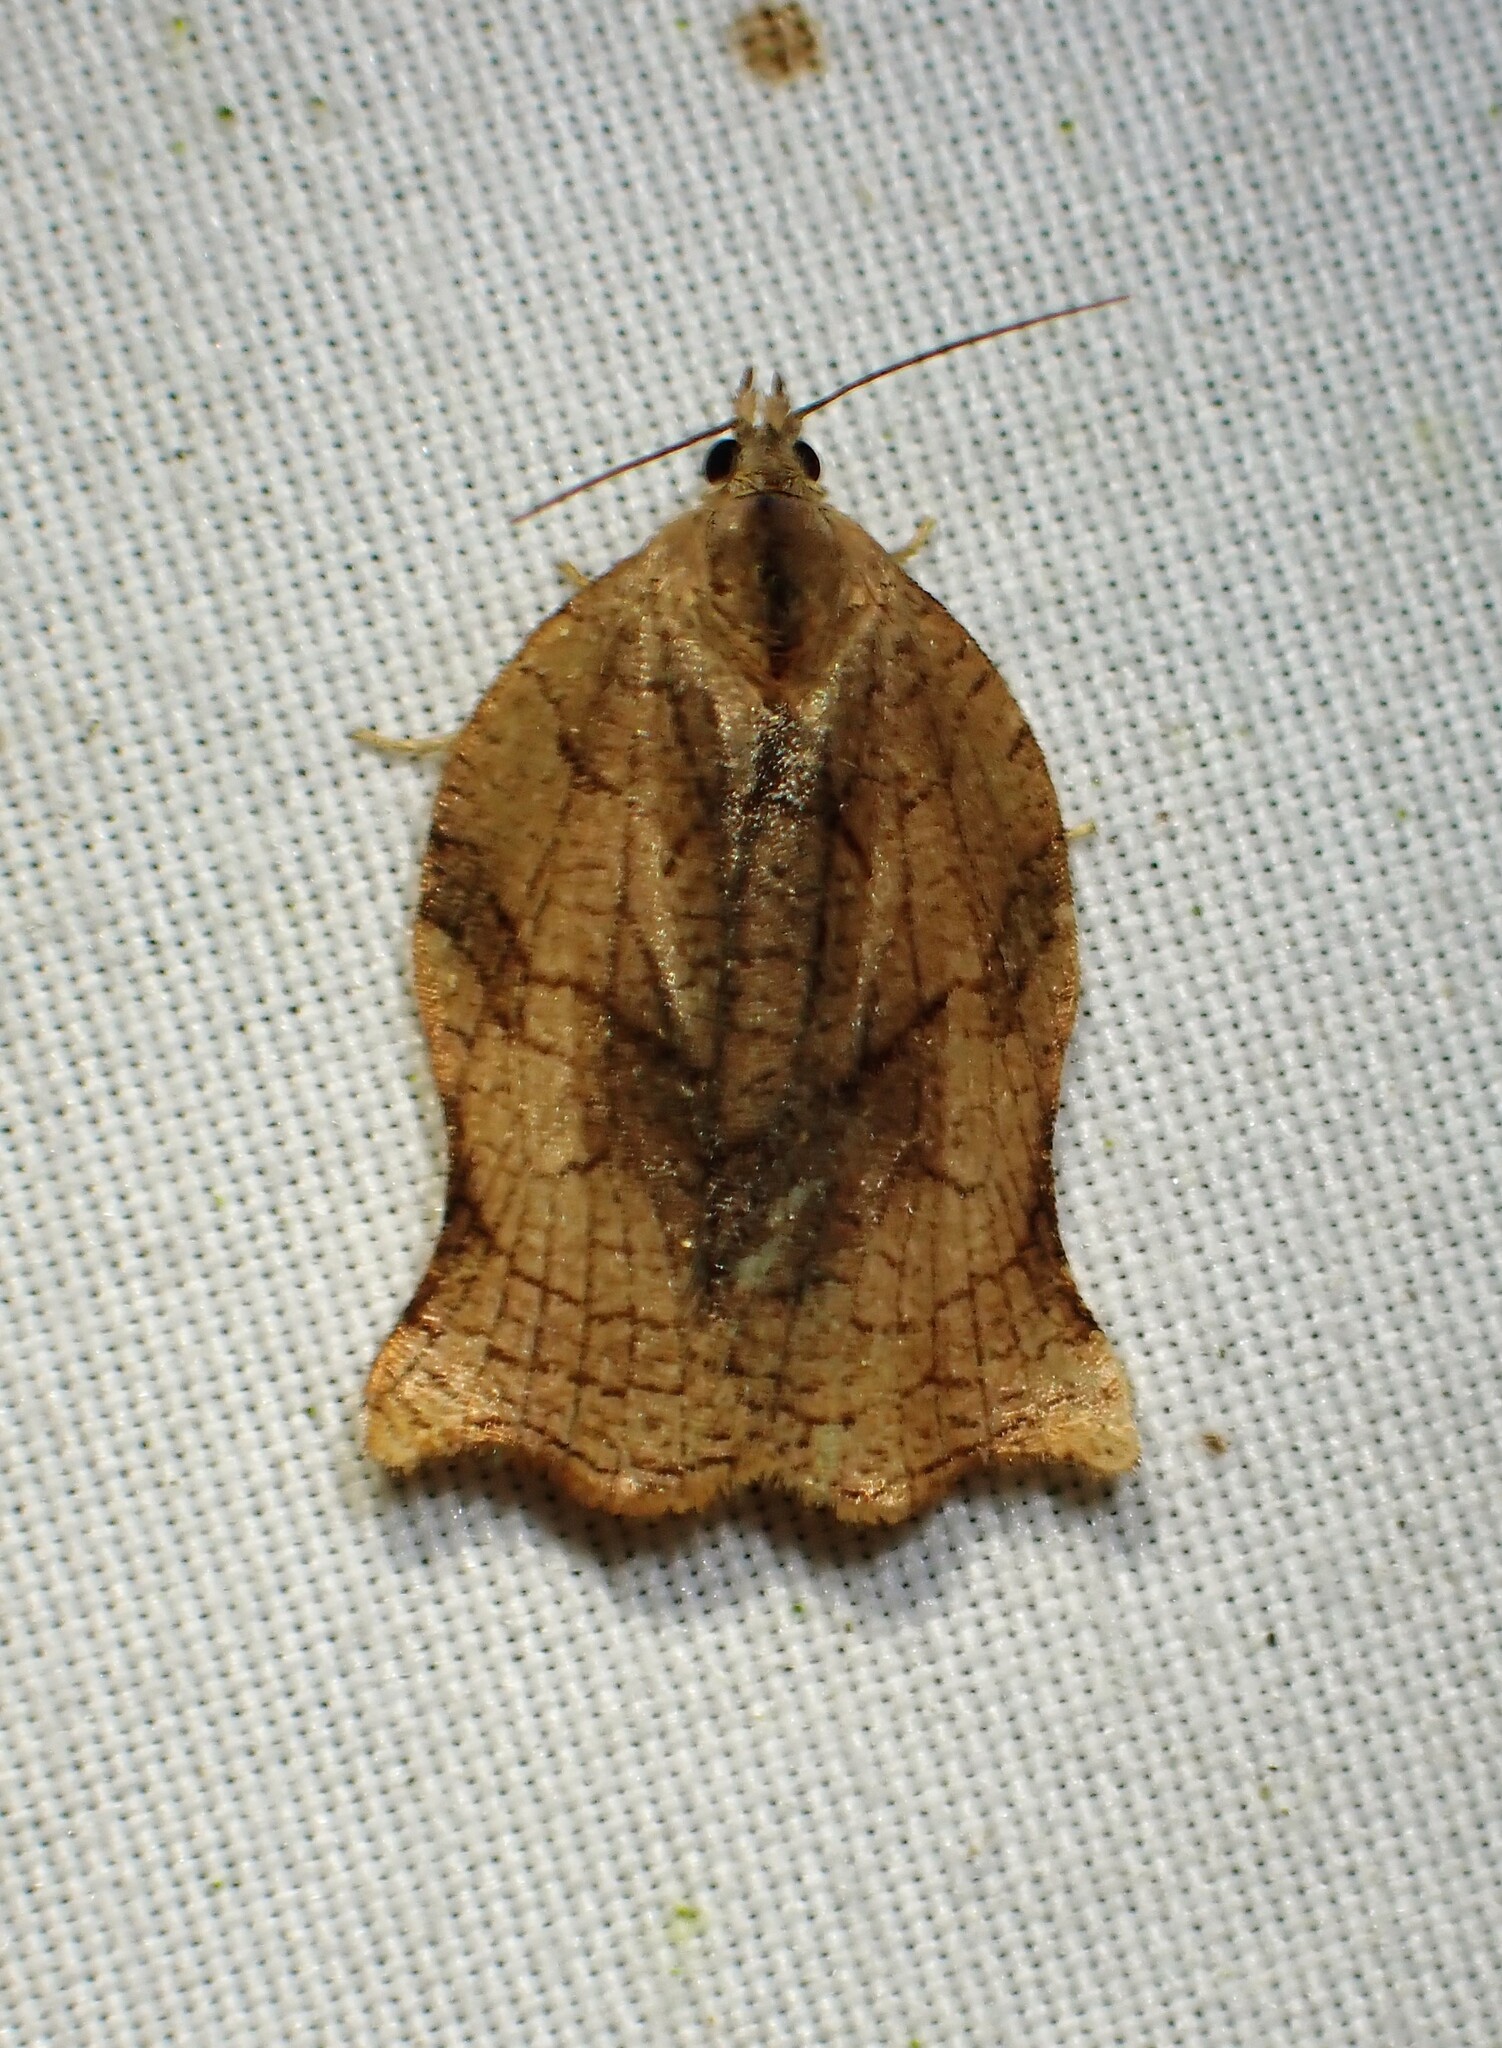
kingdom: Animalia
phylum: Arthropoda
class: Insecta
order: Lepidoptera
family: Tortricidae
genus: Archips
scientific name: Archips purpurana
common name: Omnivorous leafroller
